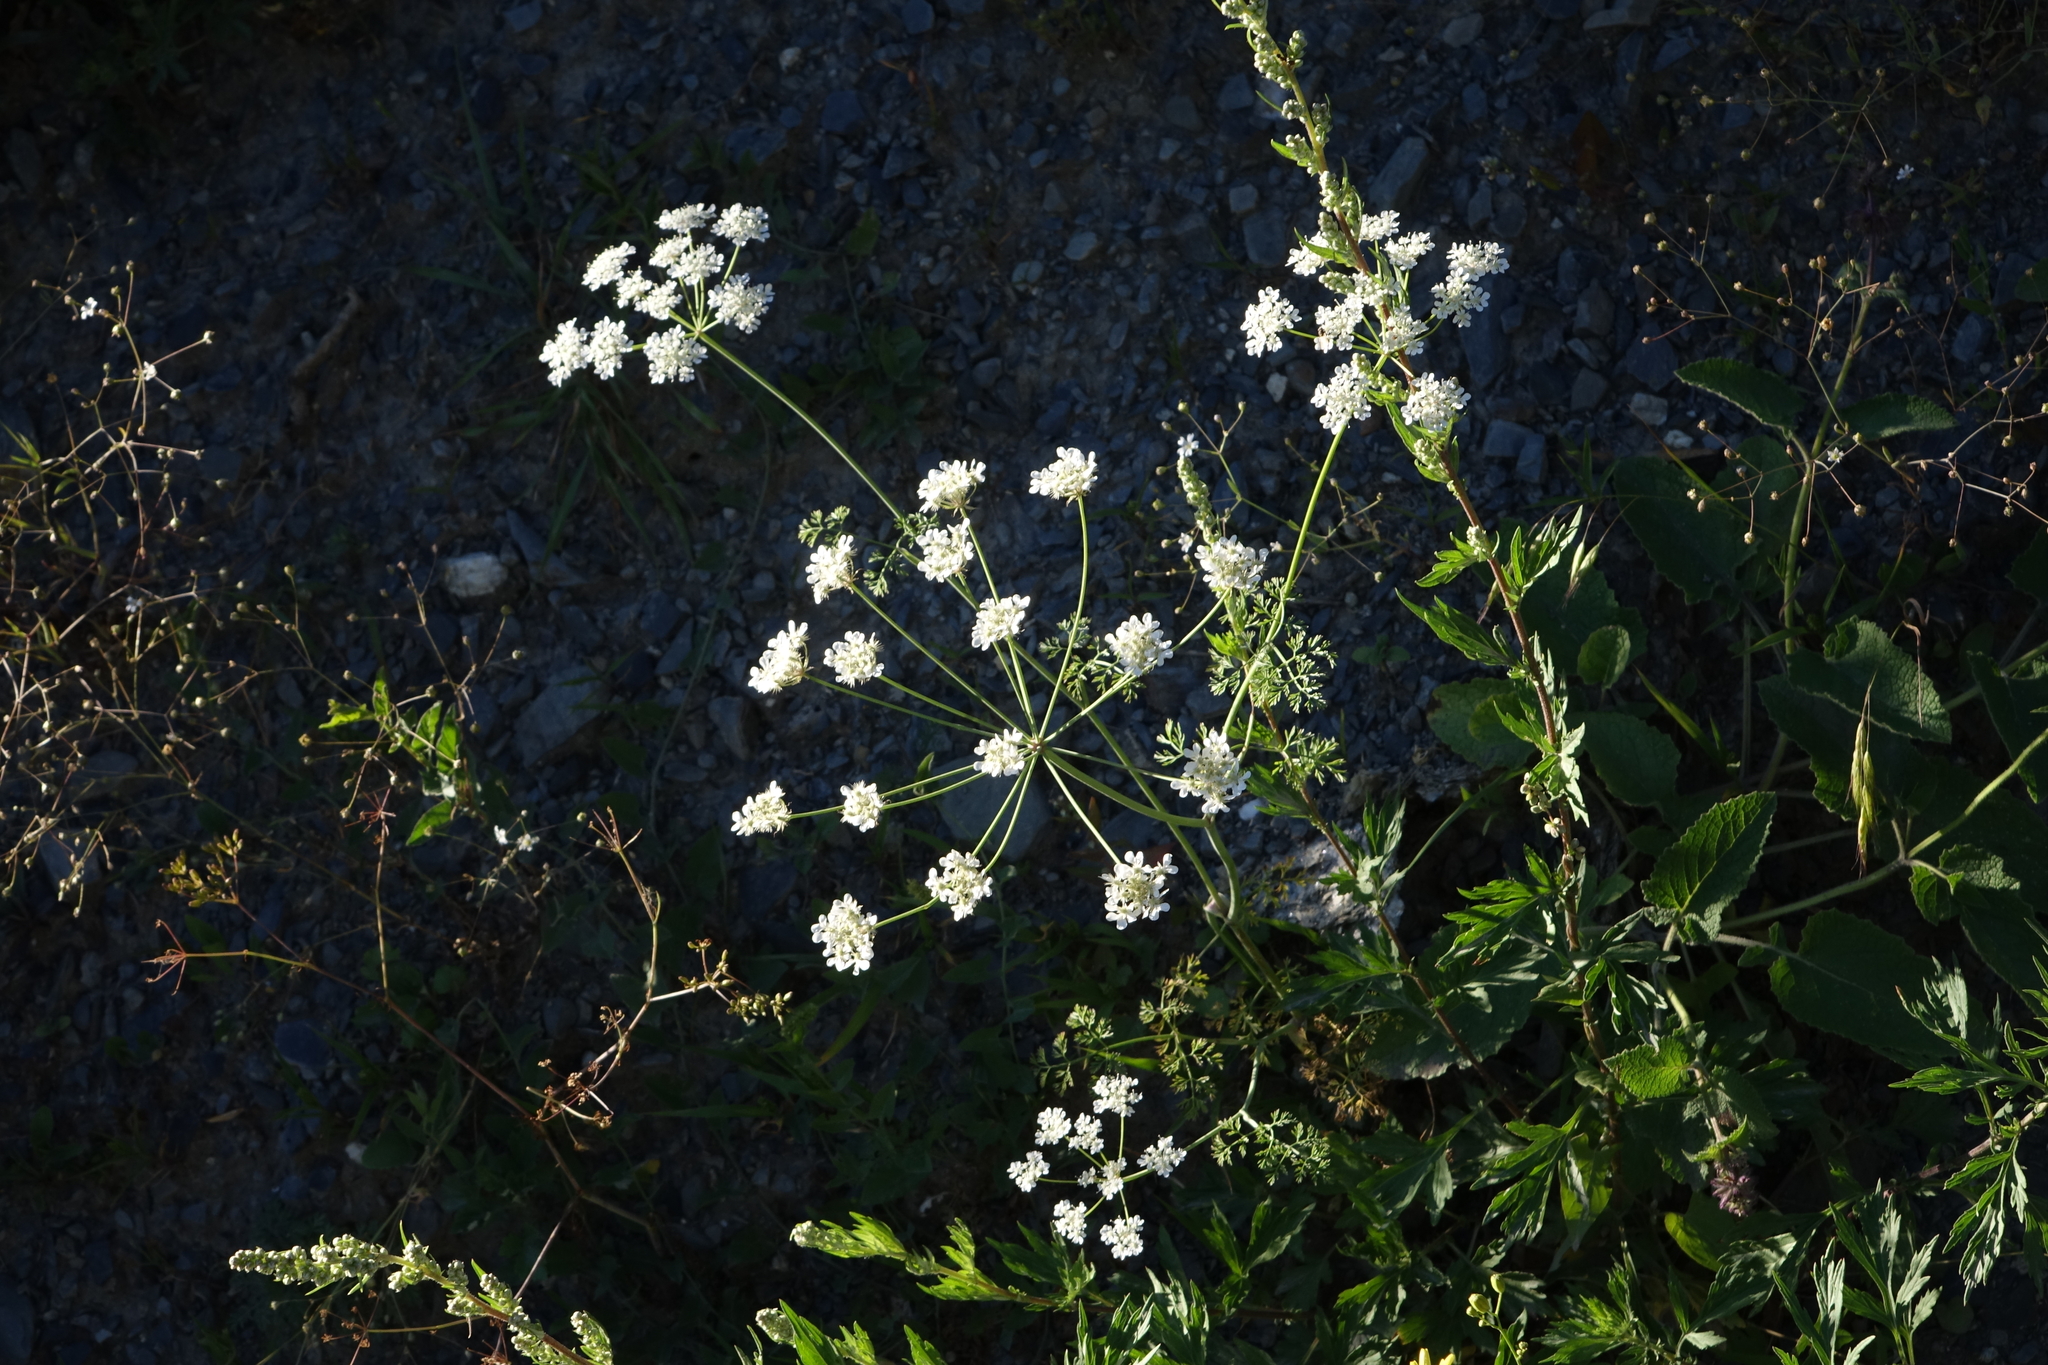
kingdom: Plantae
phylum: Tracheophyta
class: Magnoliopsida
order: Apiales
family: Apiaceae
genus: Astrodaucus
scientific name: Astrodaucus orientalis
